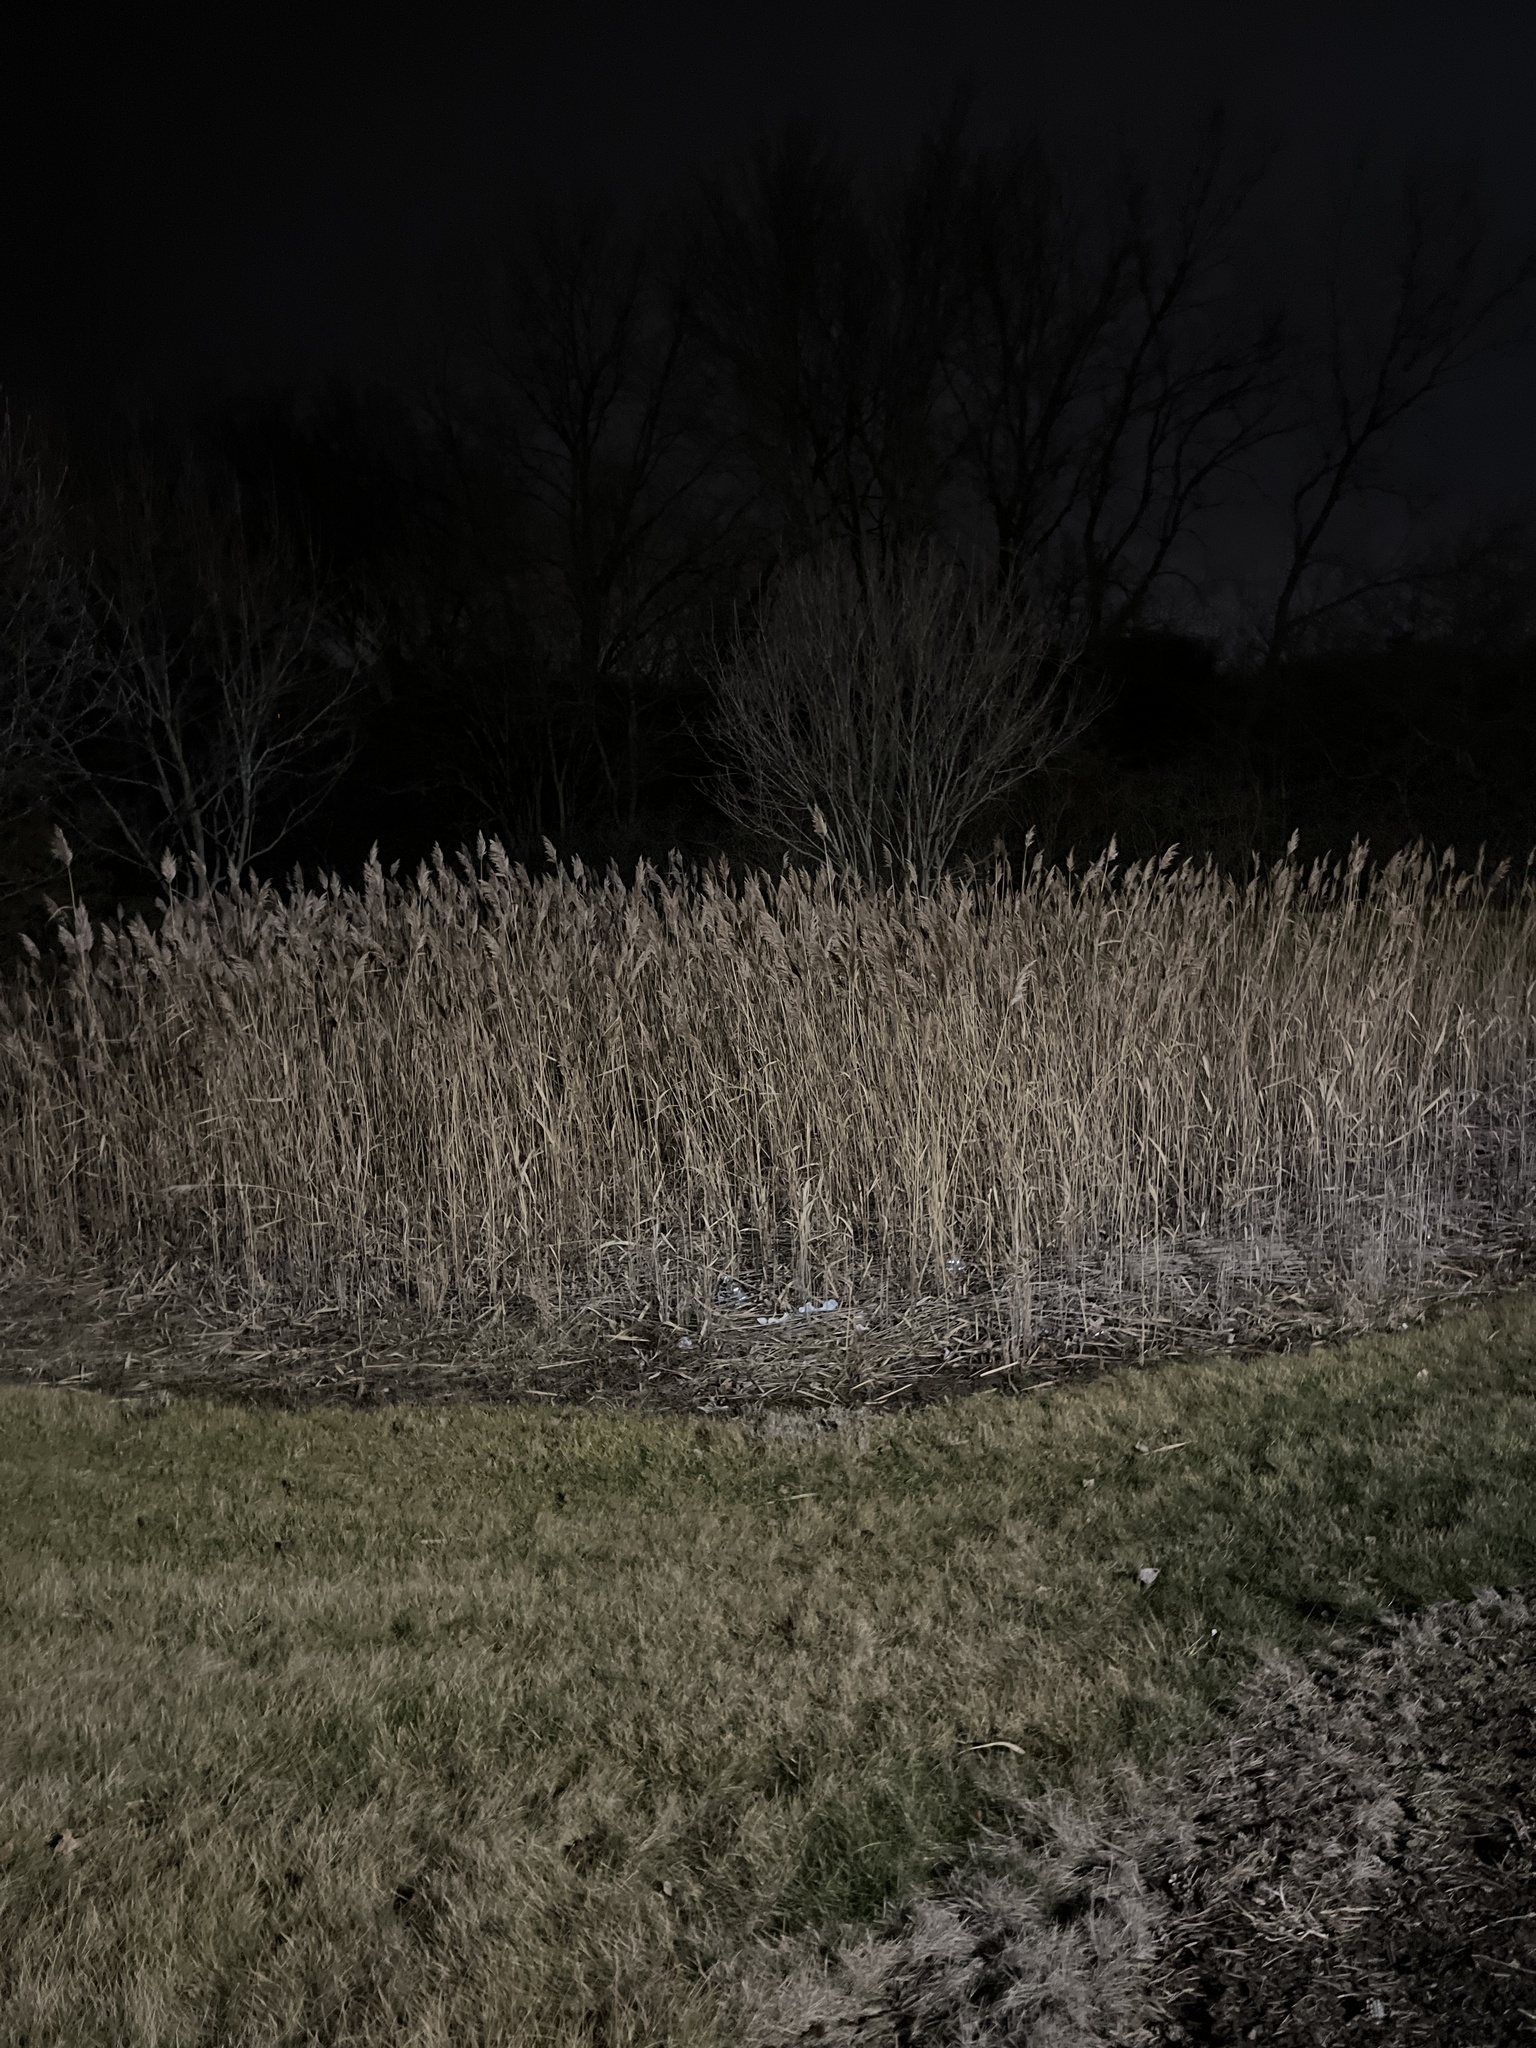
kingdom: Plantae
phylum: Tracheophyta
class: Liliopsida
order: Poales
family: Poaceae
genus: Phragmites
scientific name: Phragmites australis
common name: Common reed
